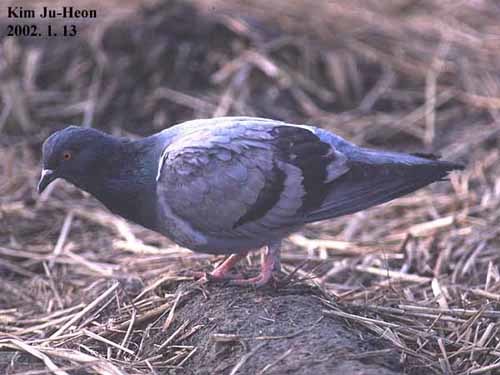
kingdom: Animalia
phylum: Chordata
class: Aves
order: Columbiformes
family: Columbidae
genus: Columba
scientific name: Columba livia
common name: Rock pigeon
